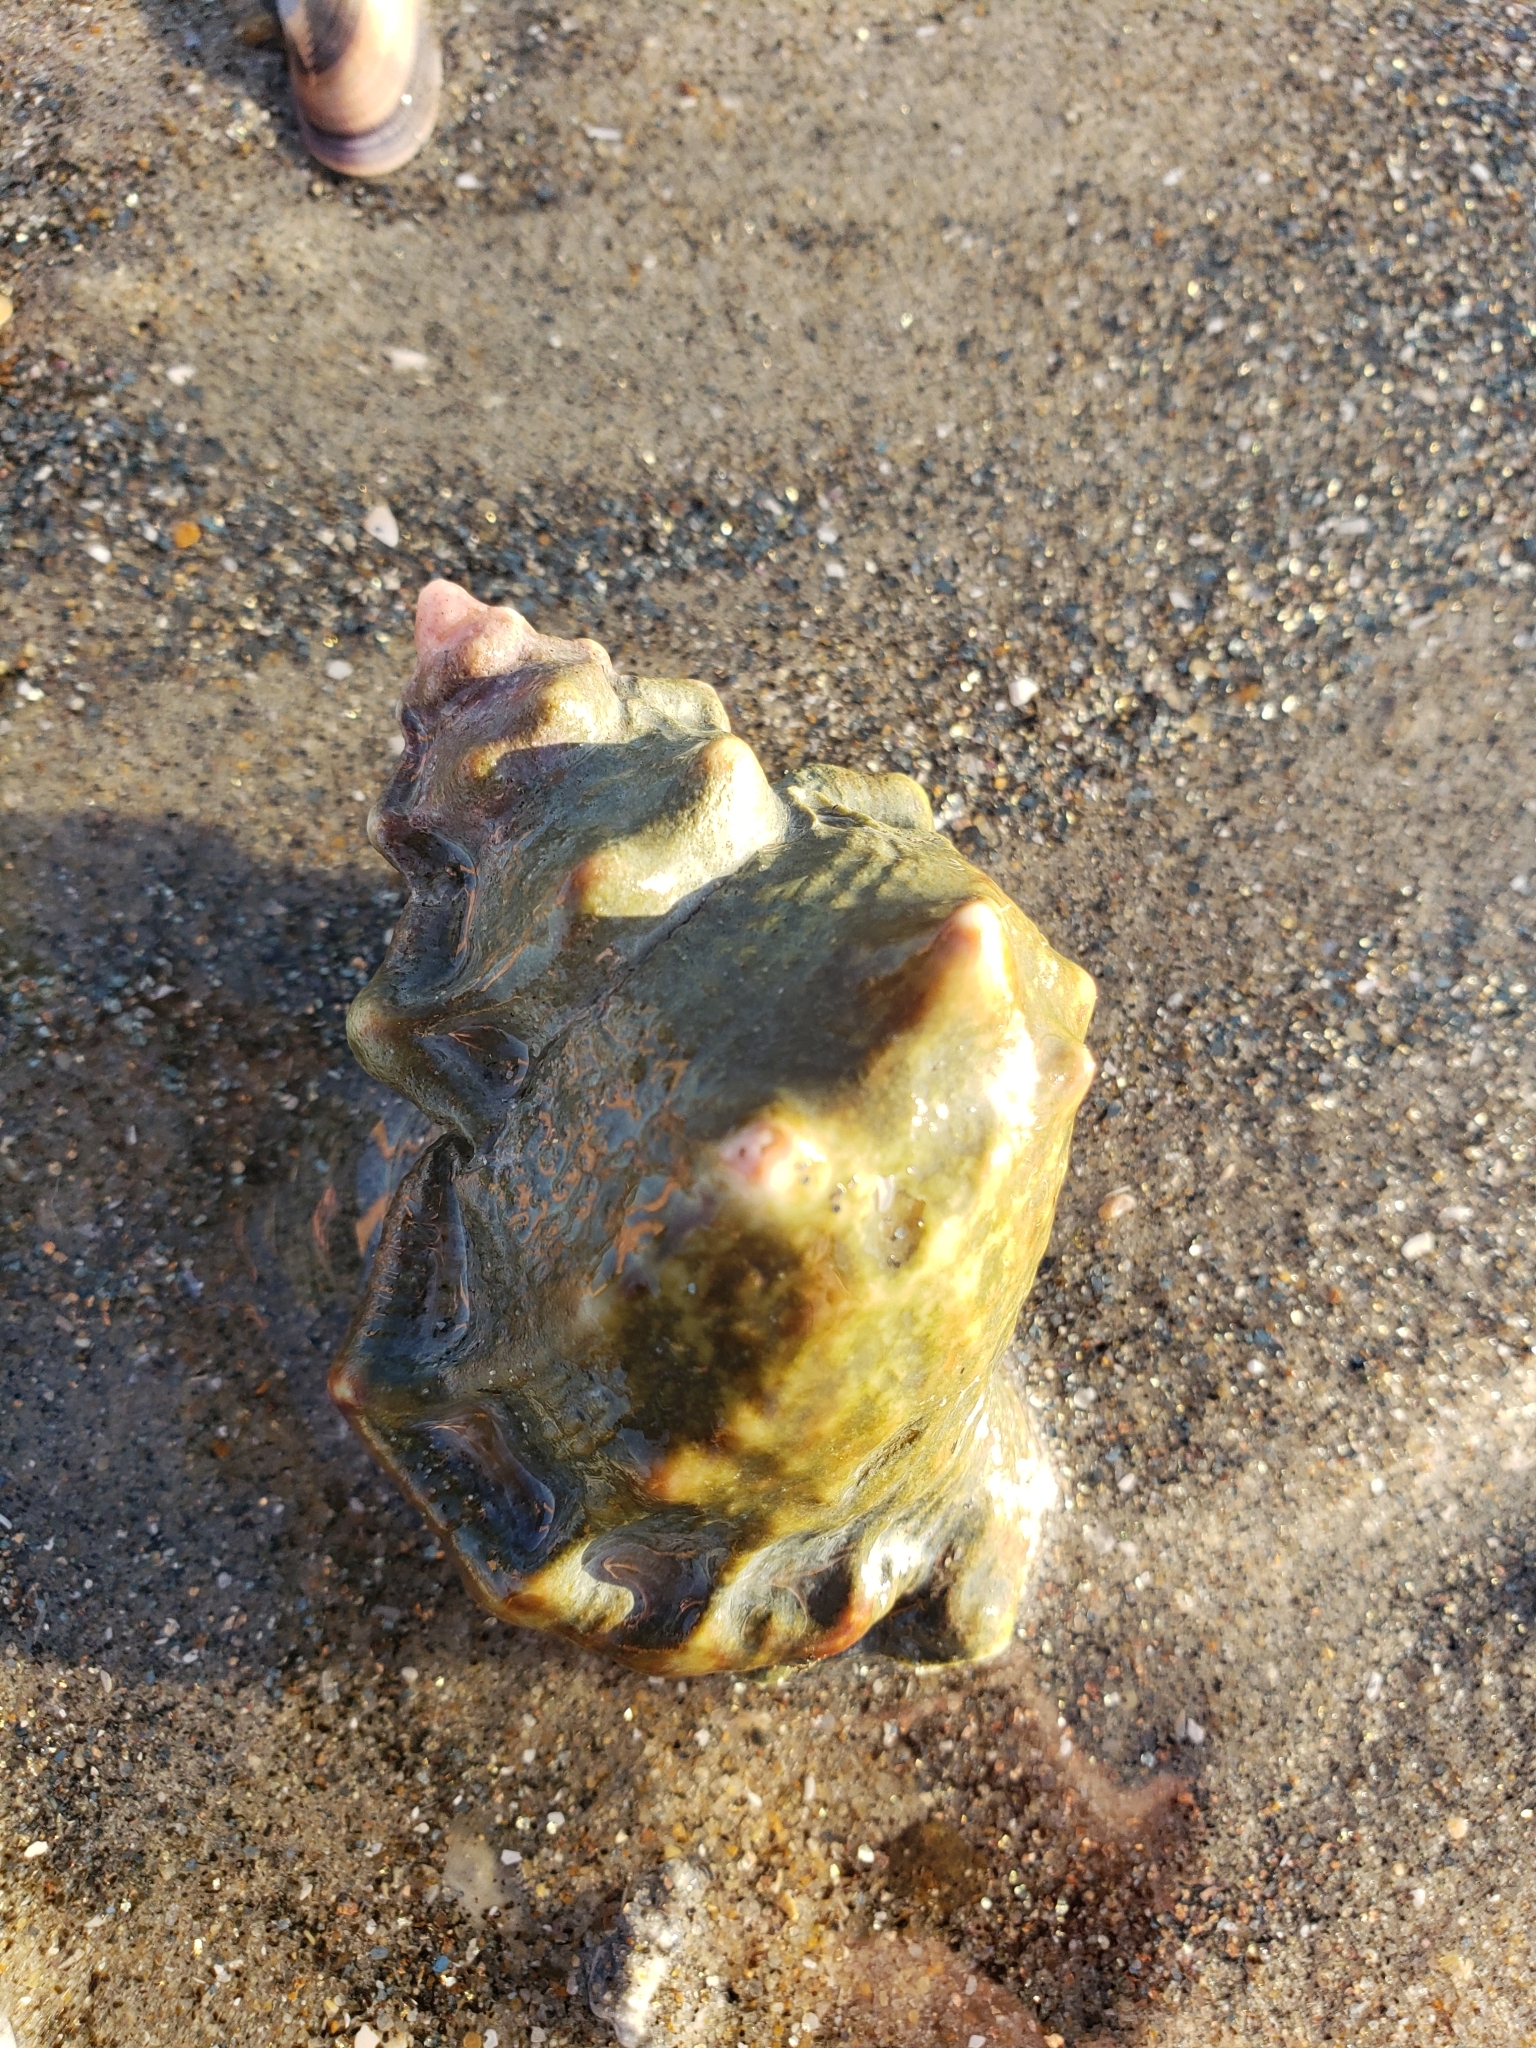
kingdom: Animalia
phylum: Mollusca
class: Gastropoda
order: Littorinimorpha
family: Bursidae
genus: Crossata
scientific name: Crossata californica
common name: California frogsnail
